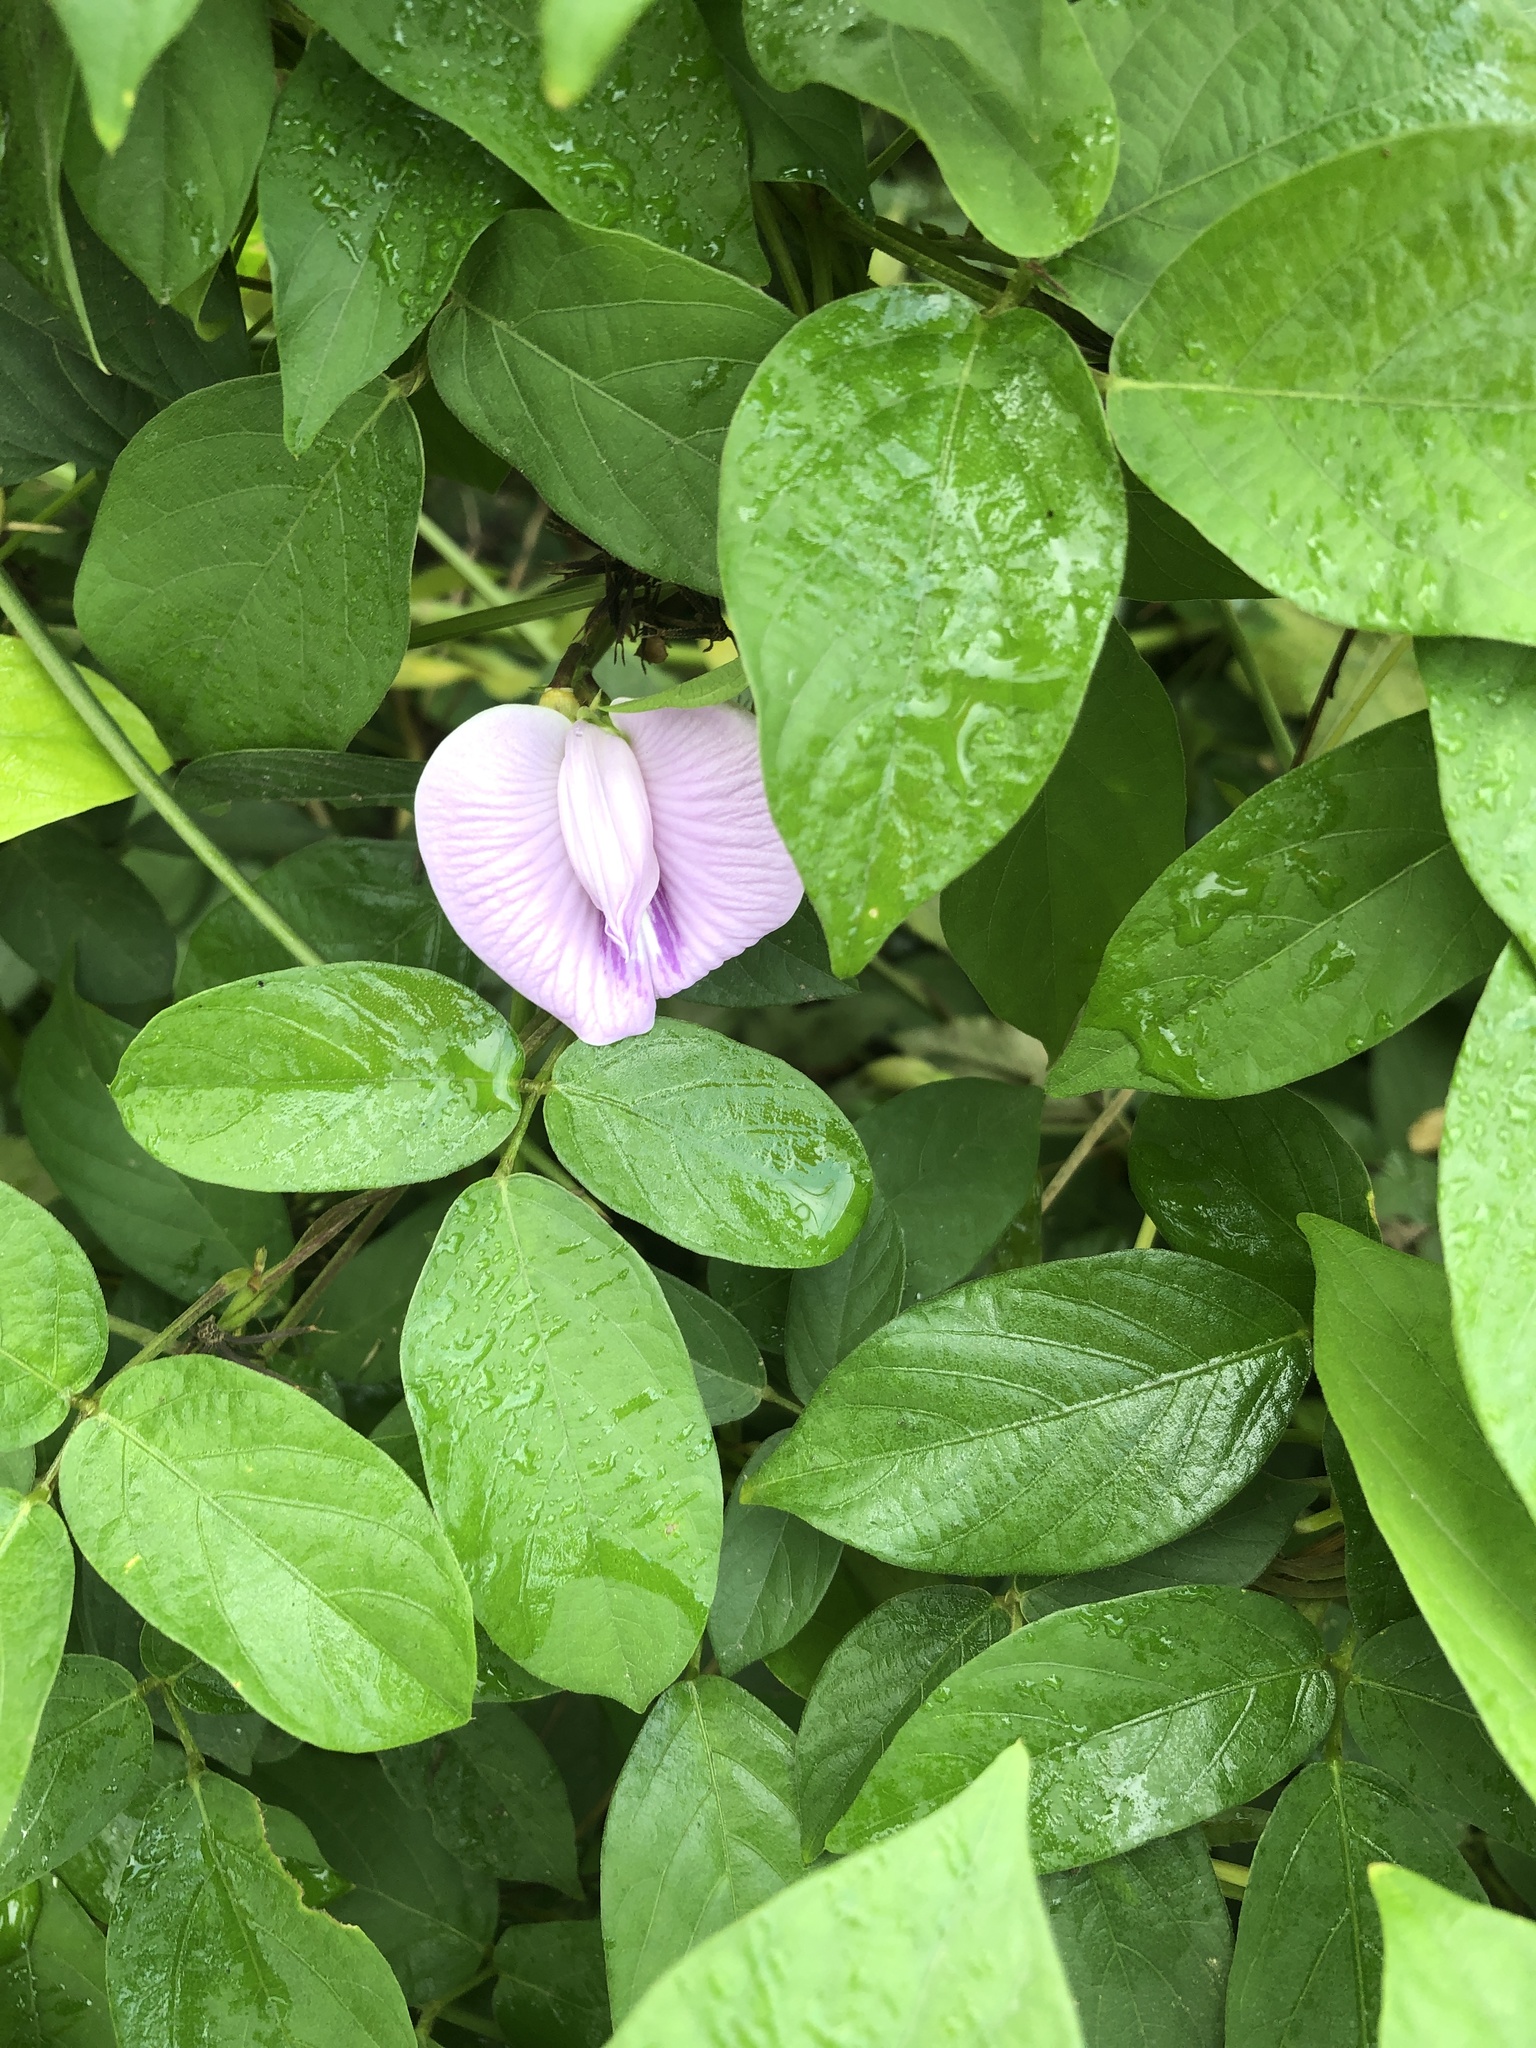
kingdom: Plantae
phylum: Tracheophyta
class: Magnoliopsida
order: Fabales
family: Fabaceae
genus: Centrosema
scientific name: Centrosema pubescens
